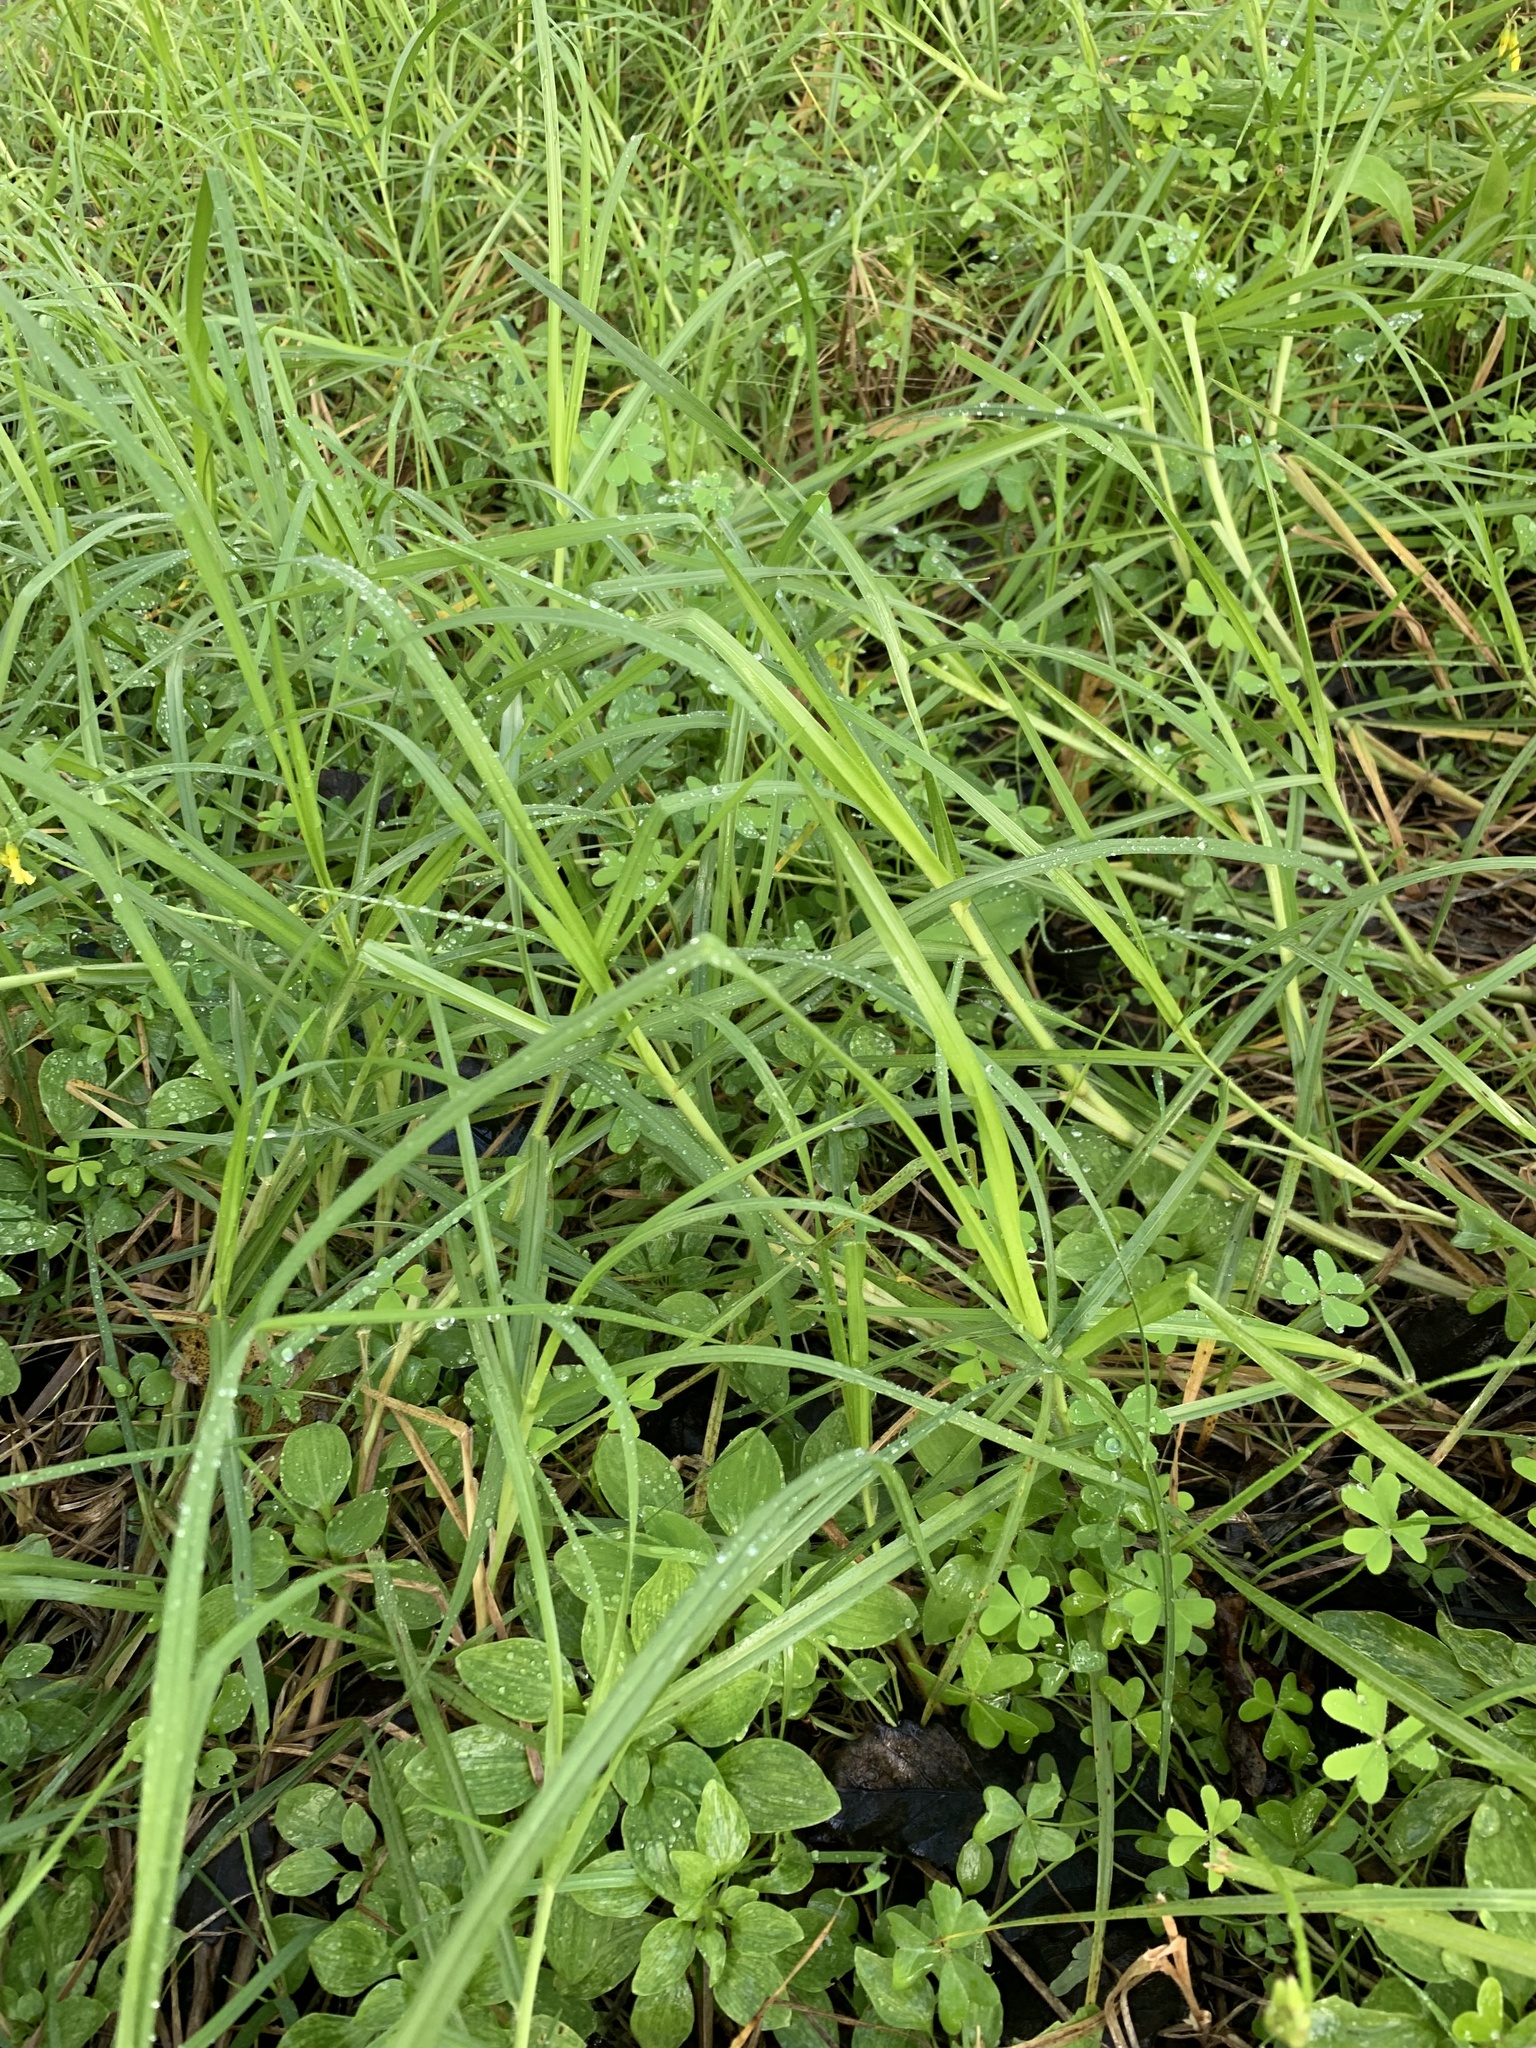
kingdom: Plantae
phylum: Tracheophyta
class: Liliopsida
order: Poales
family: Poaceae
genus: Cenchrus
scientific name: Cenchrus clandestinus
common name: Kikuyugrass
